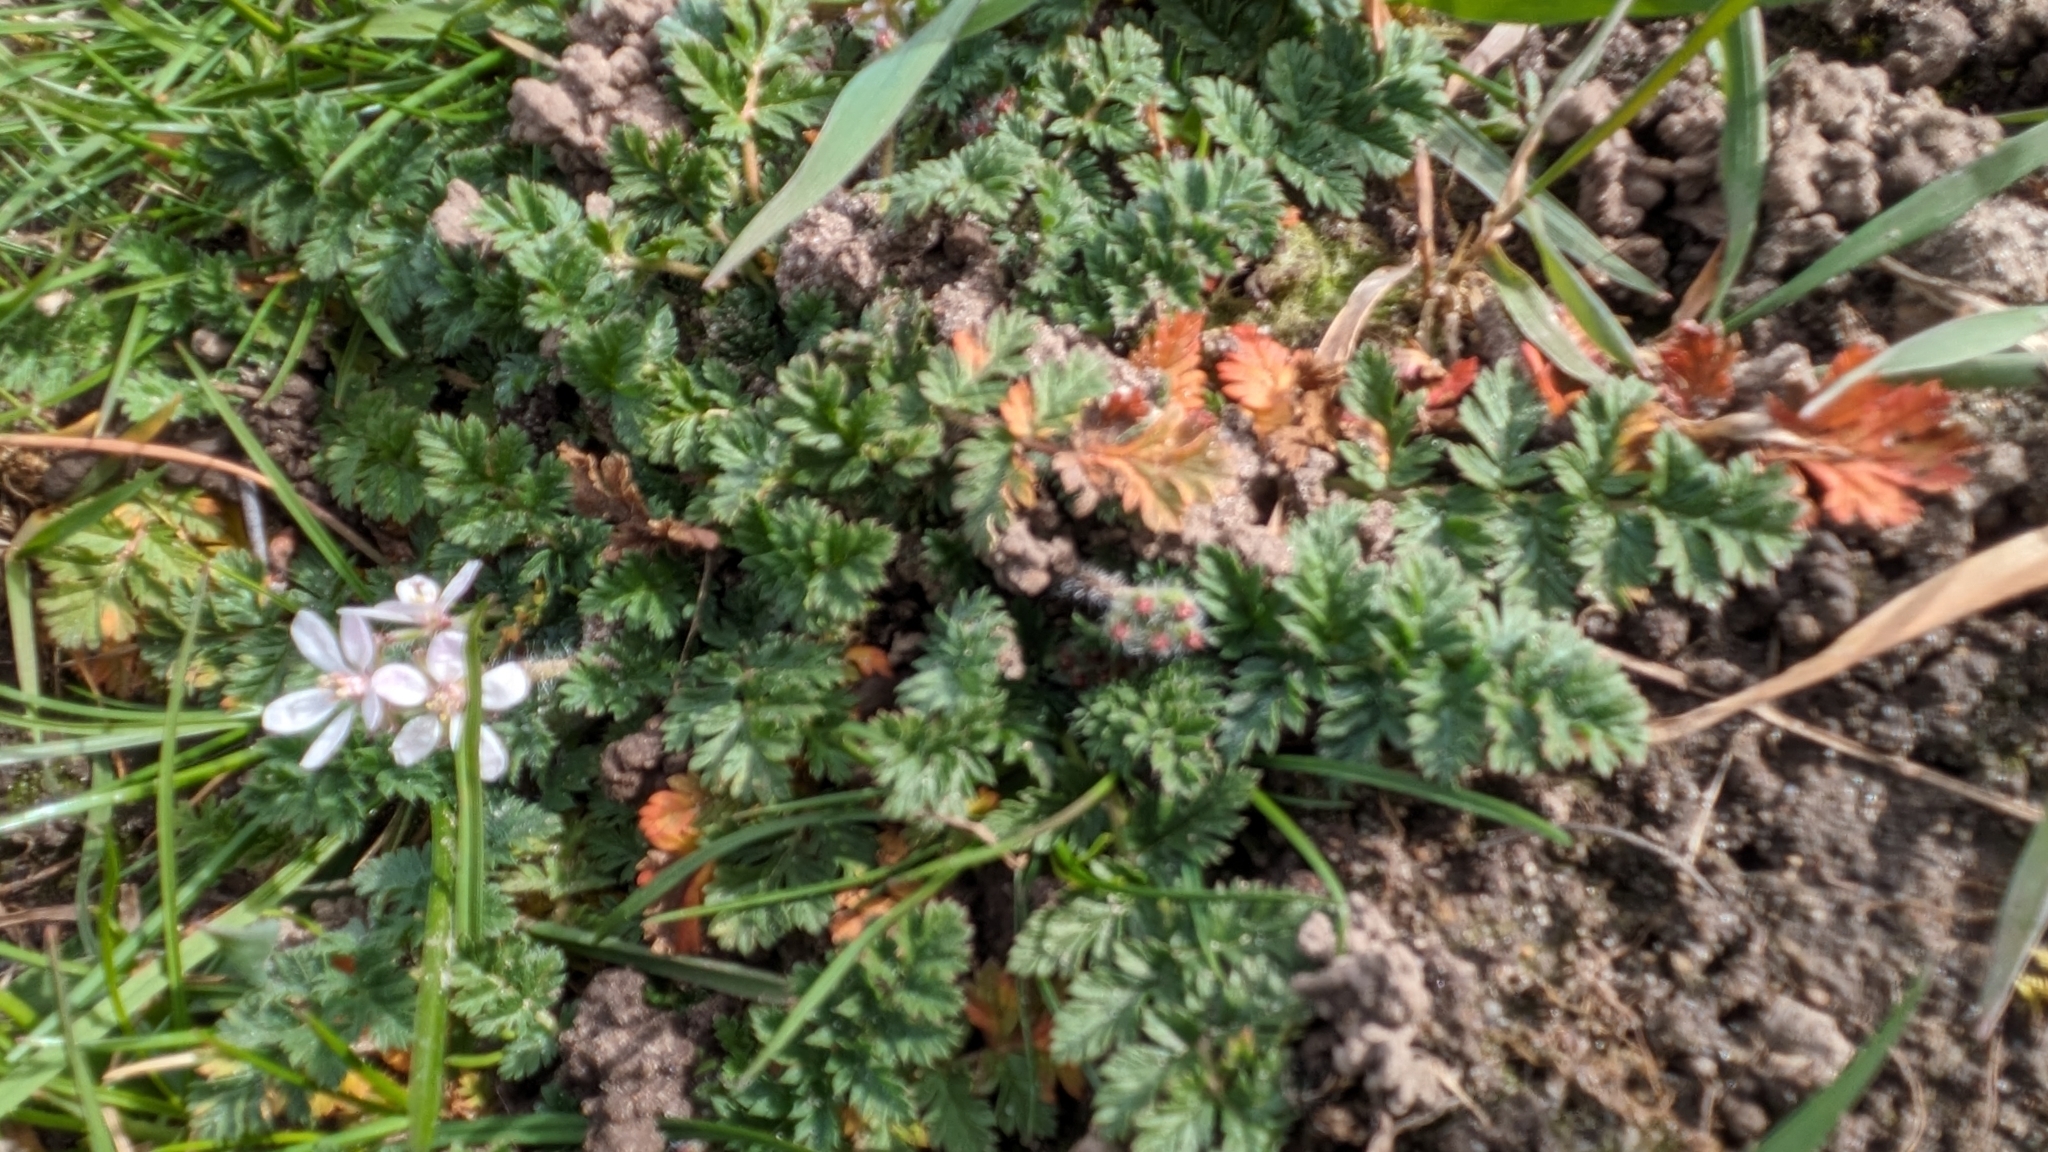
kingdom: Plantae
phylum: Tracheophyta
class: Magnoliopsida
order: Geraniales
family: Geraniaceae
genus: Erodium
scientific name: Erodium cicutarium
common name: Common stork's-bill
